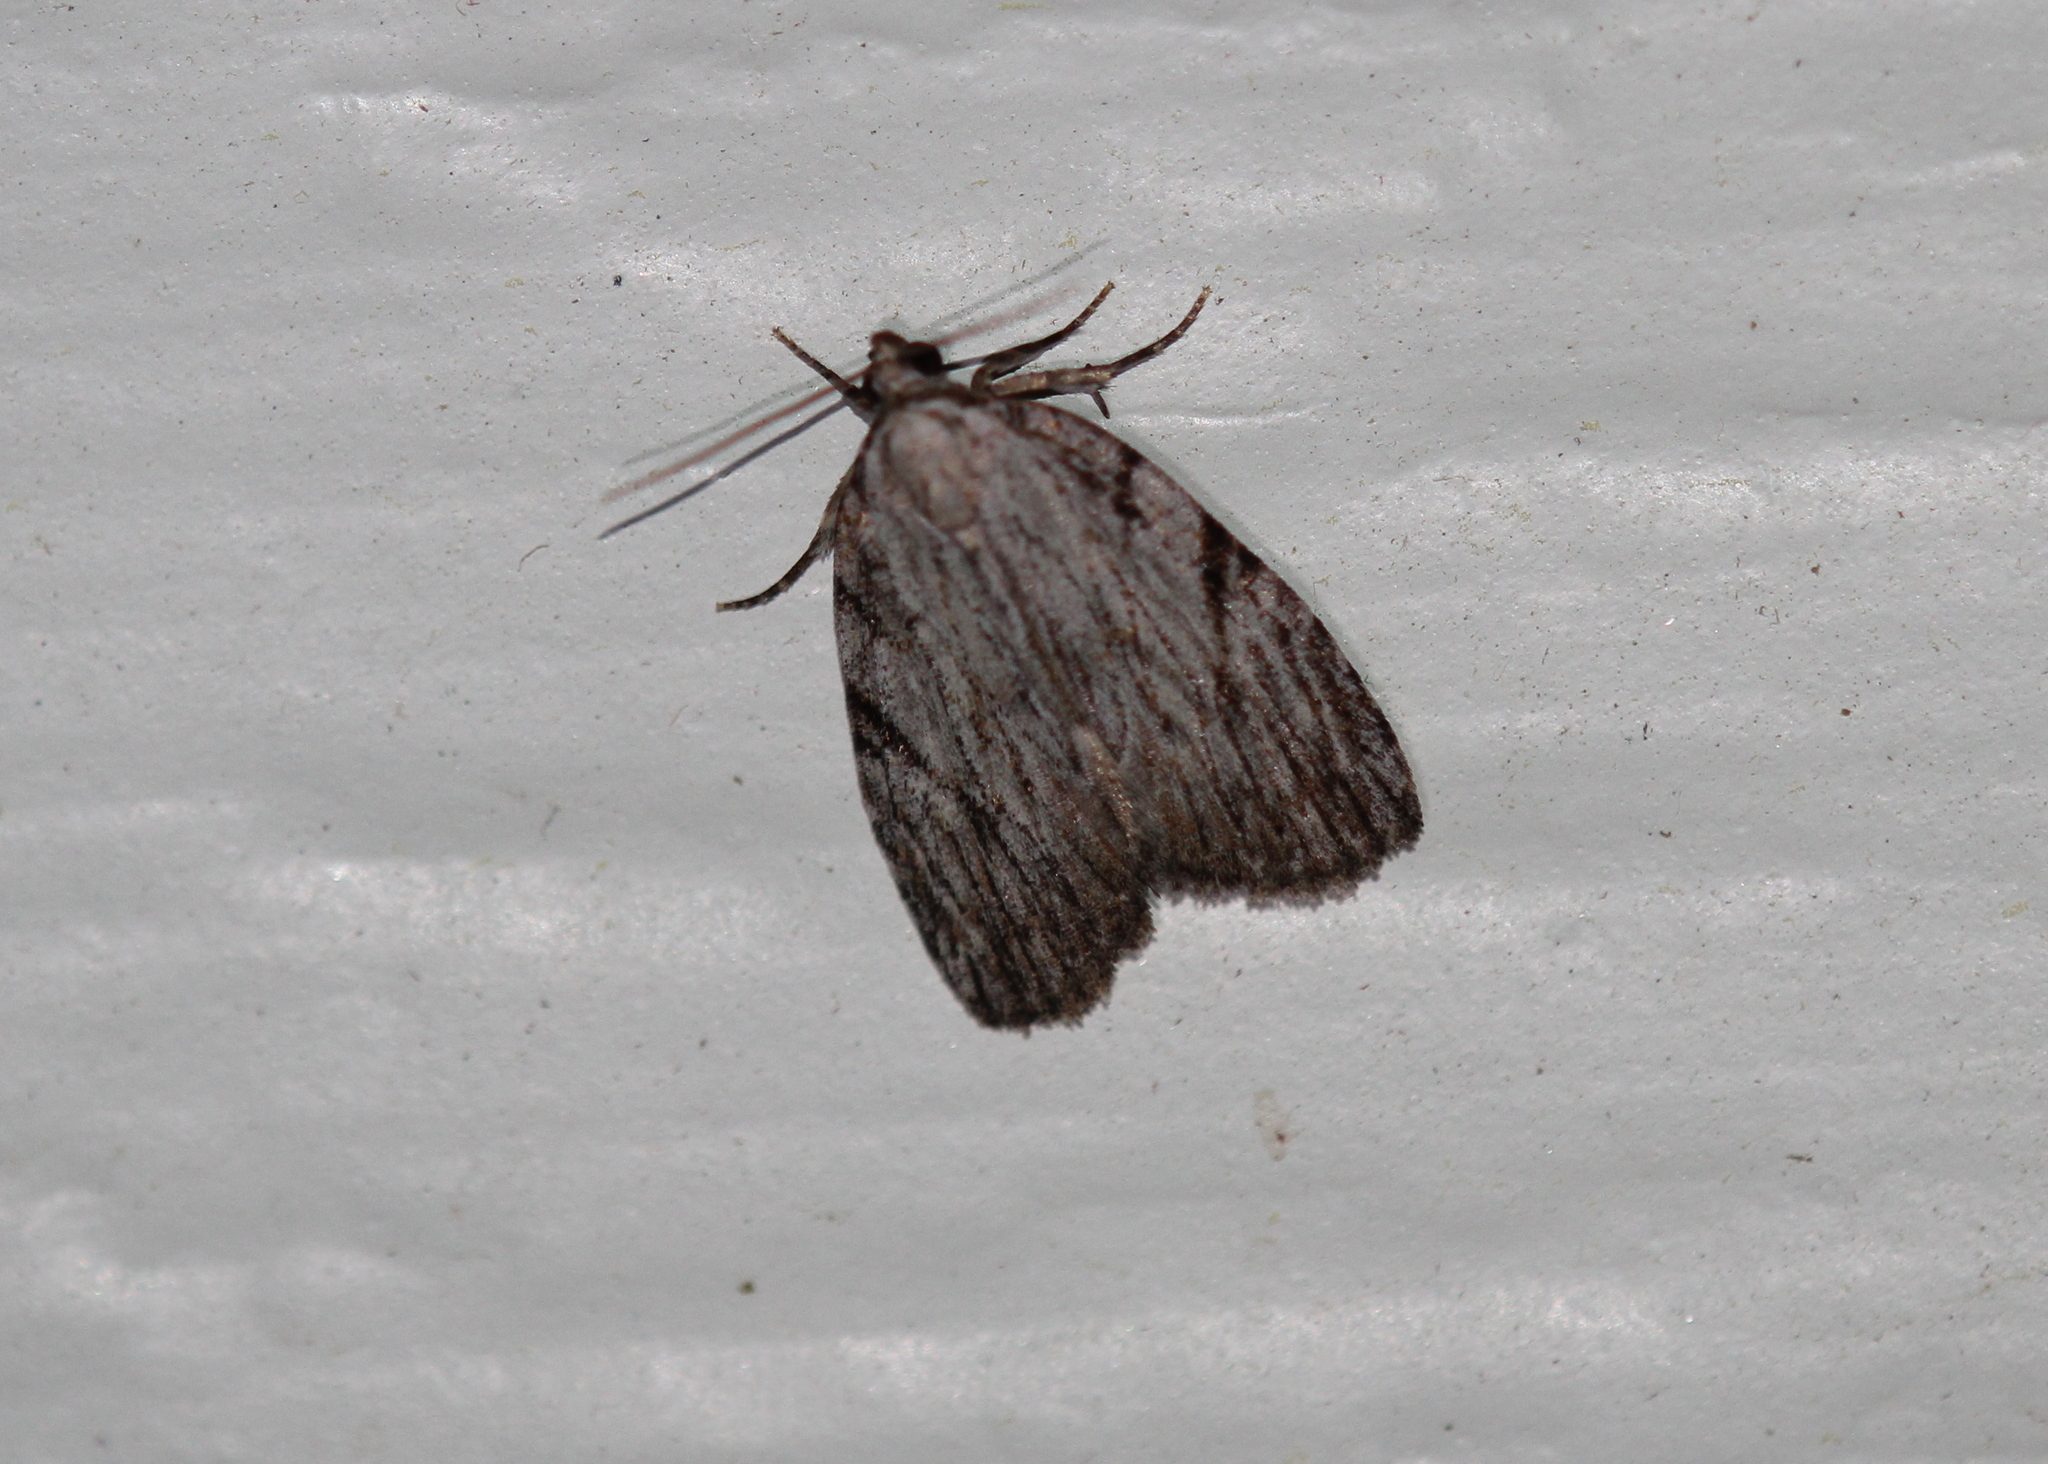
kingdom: Animalia
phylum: Arthropoda
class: Insecta
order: Lepidoptera
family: Noctuidae
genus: Balsa
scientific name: Balsa tristrigella
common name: Three-lined balsa moth
